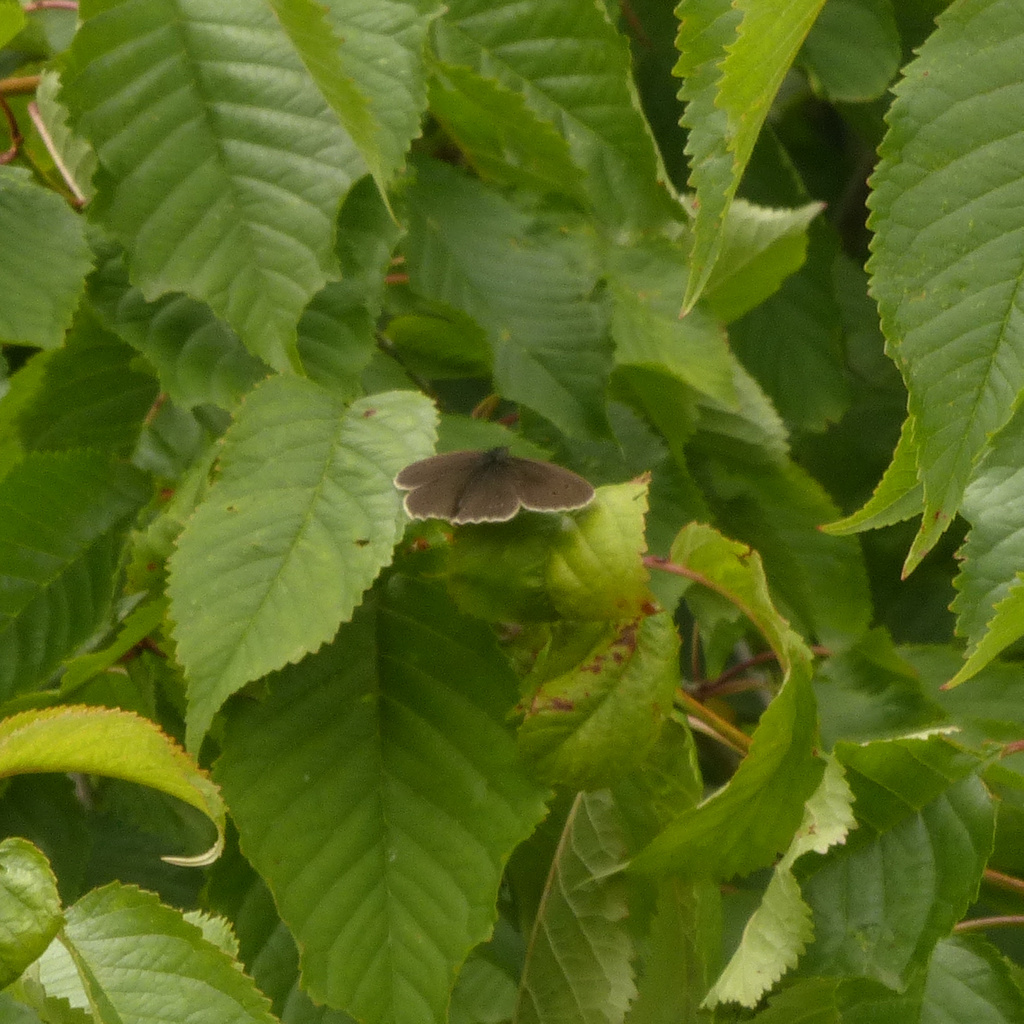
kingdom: Animalia
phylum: Arthropoda
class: Insecta
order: Lepidoptera
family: Nymphalidae
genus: Aphantopus
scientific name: Aphantopus hyperantus
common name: Ringlet
